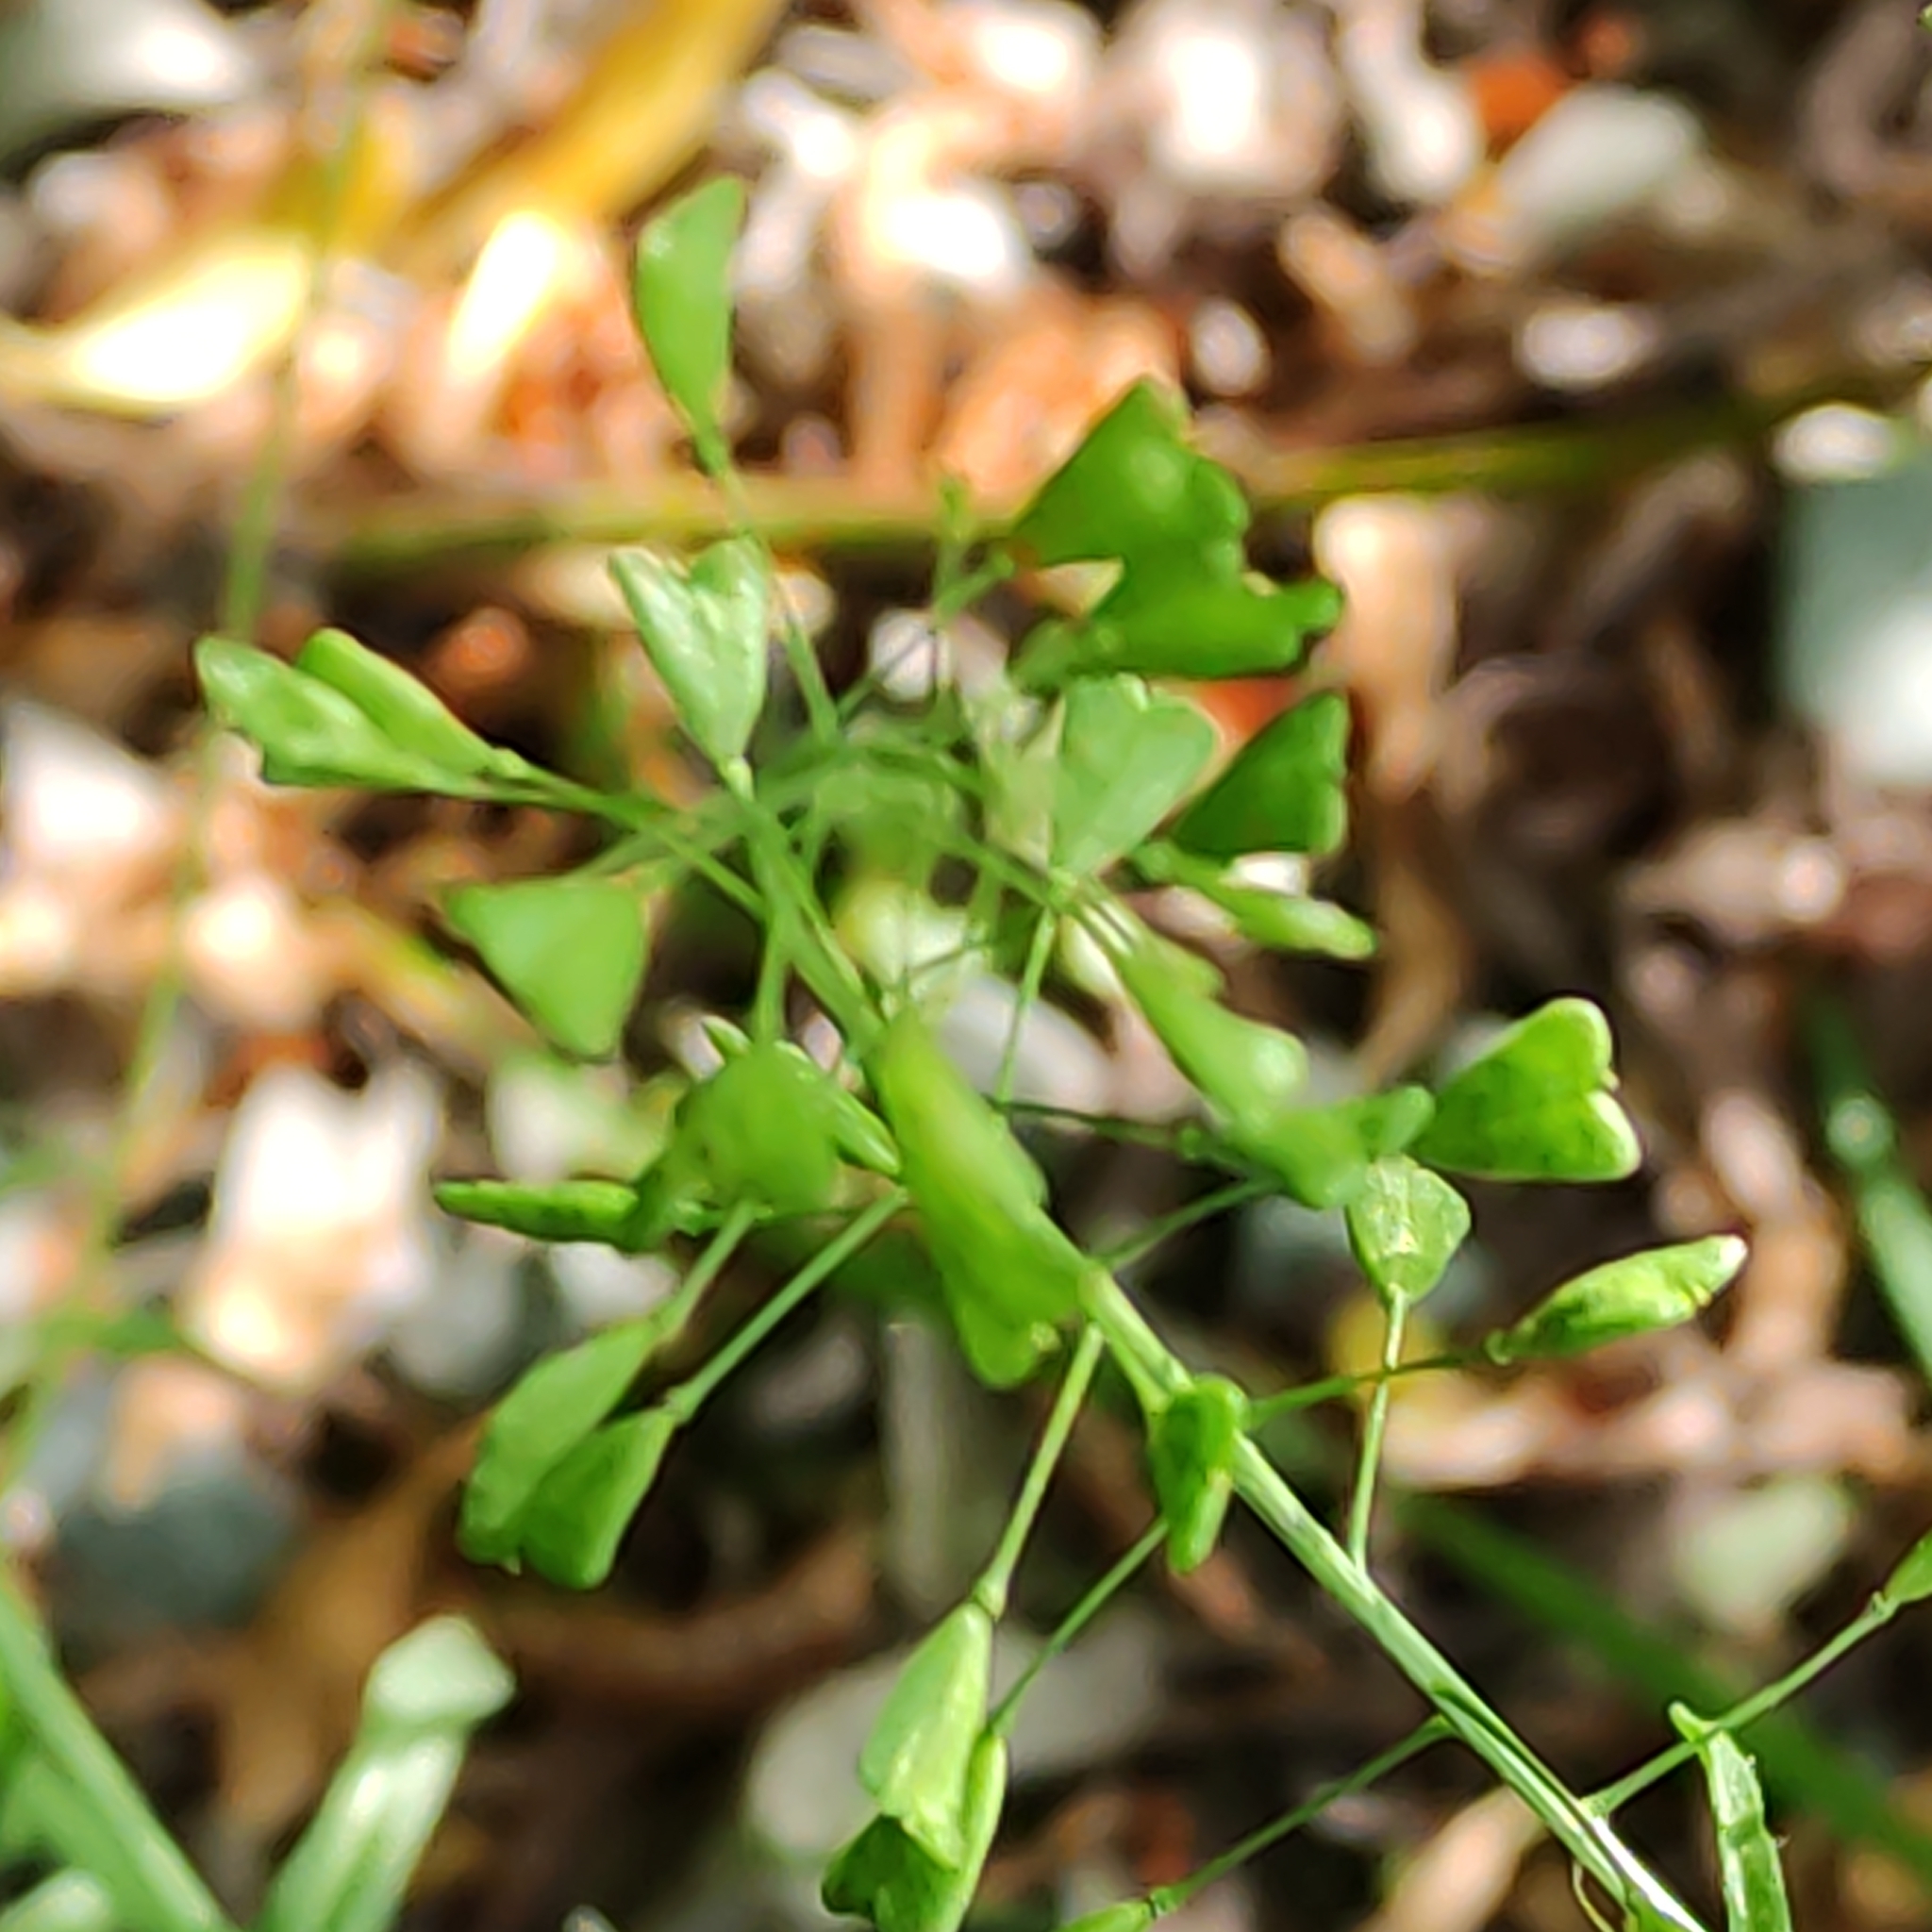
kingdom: Plantae
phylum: Tracheophyta
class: Magnoliopsida
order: Brassicales
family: Brassicaceae
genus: Capsella
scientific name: Capsella bursa-pastoris
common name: Shepherd's purse
